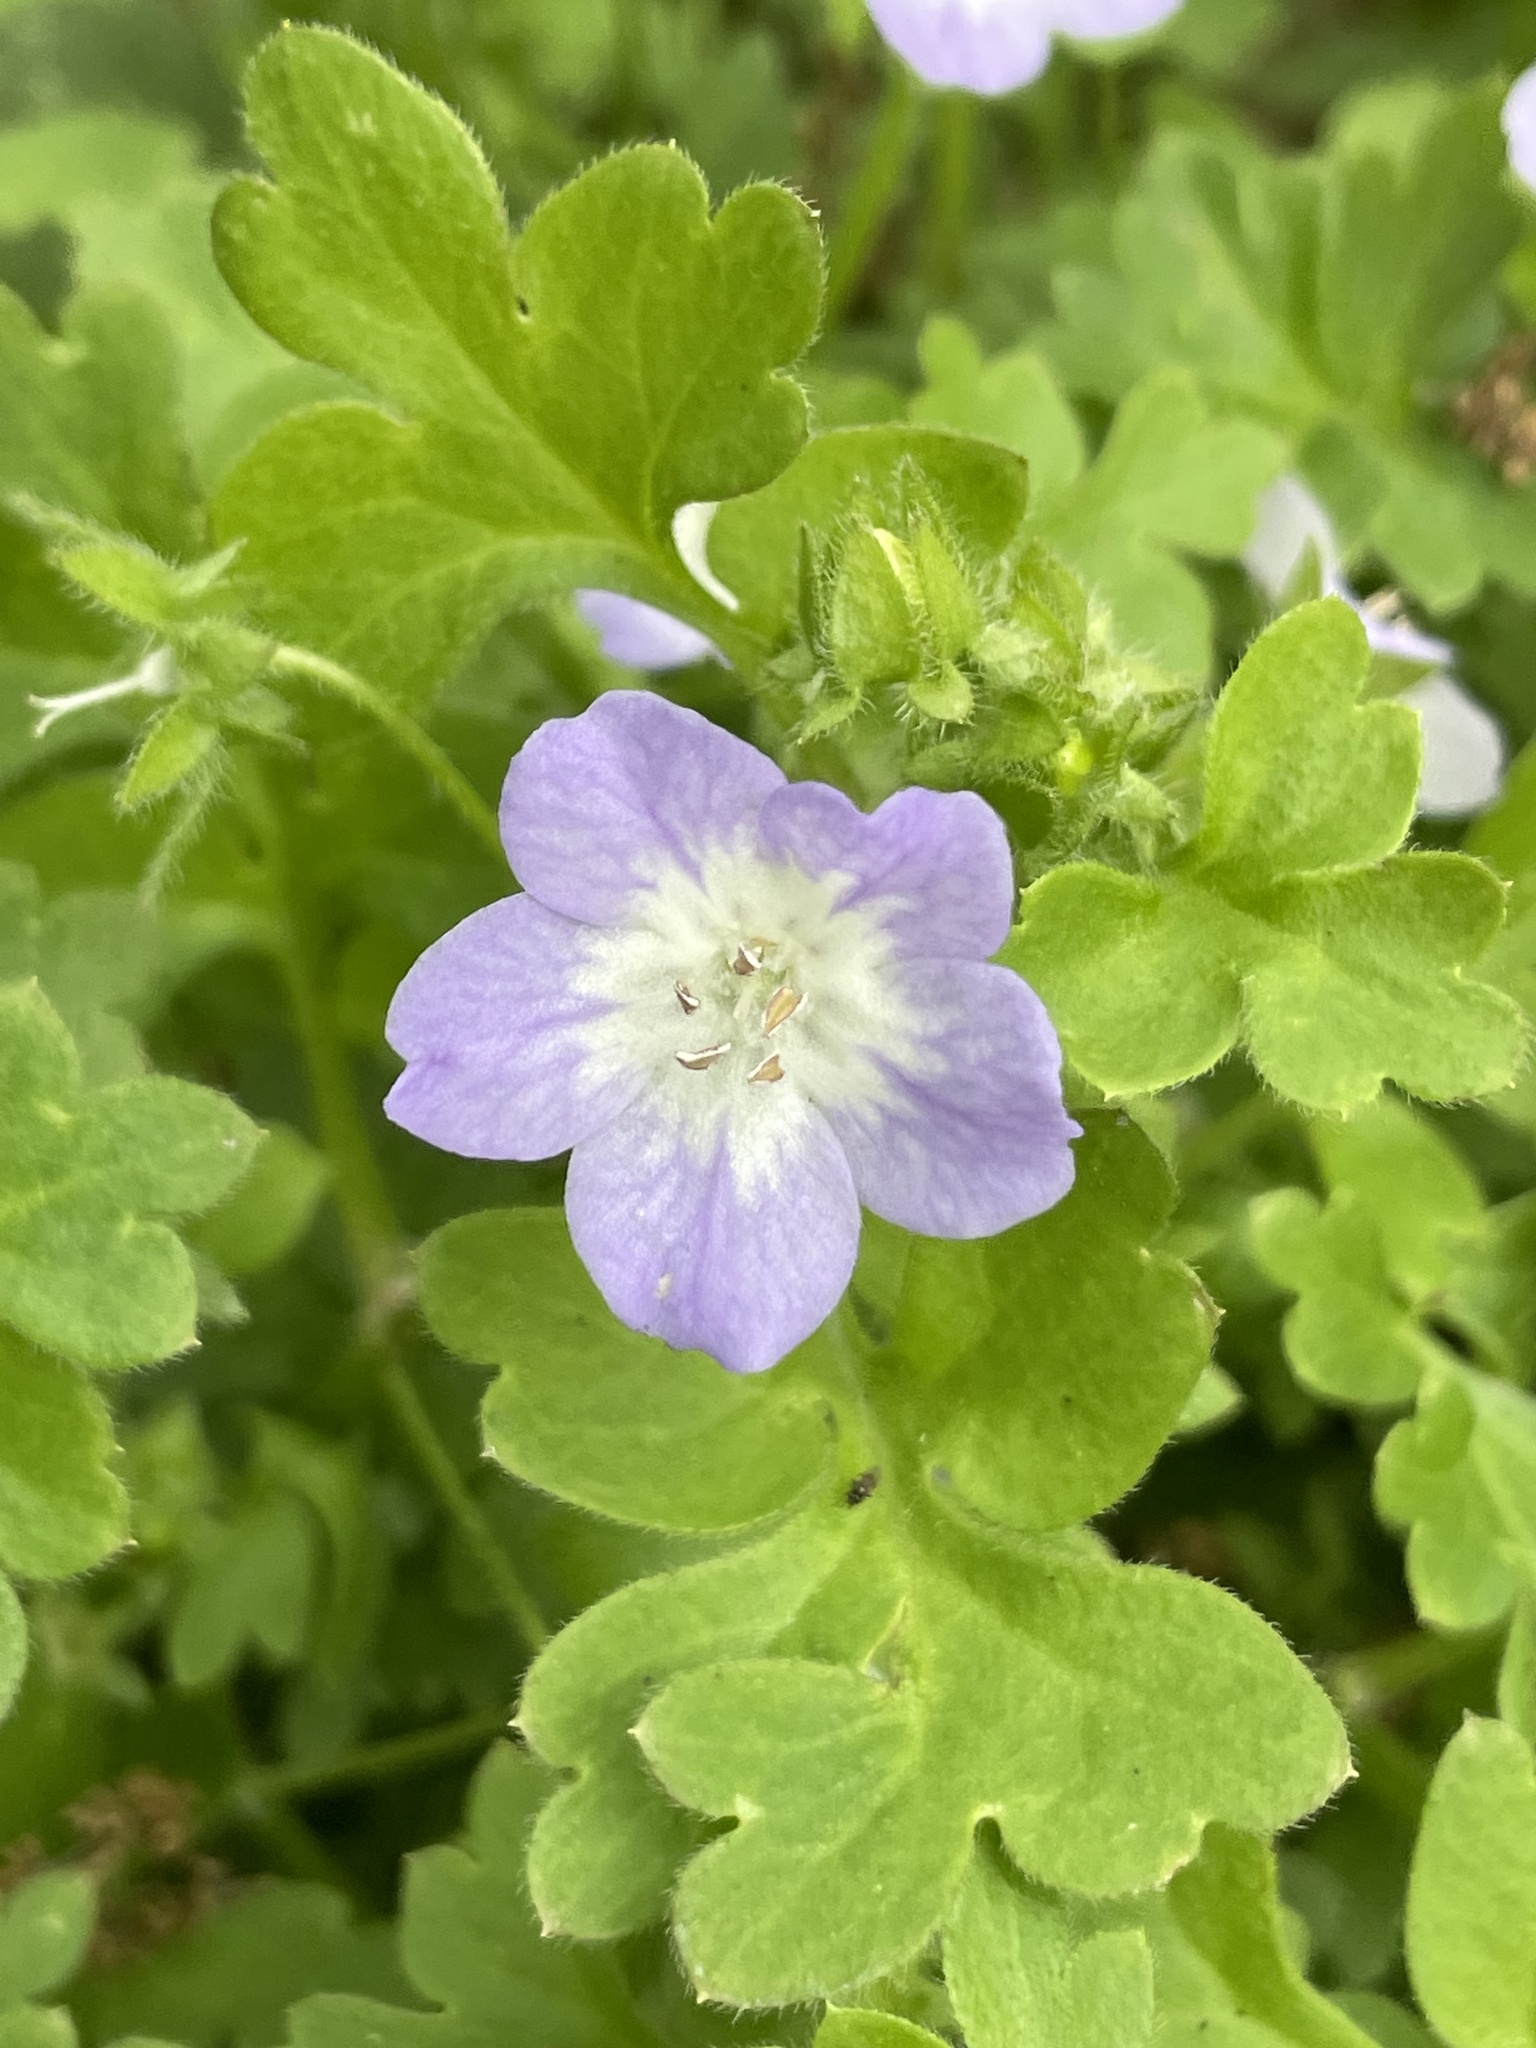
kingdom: Plantae
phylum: Tracheophyta
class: Magnoliopsida
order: Boraginales
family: Hydrophyllaceae
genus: Nemophila
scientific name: Nemophila phacelioides
